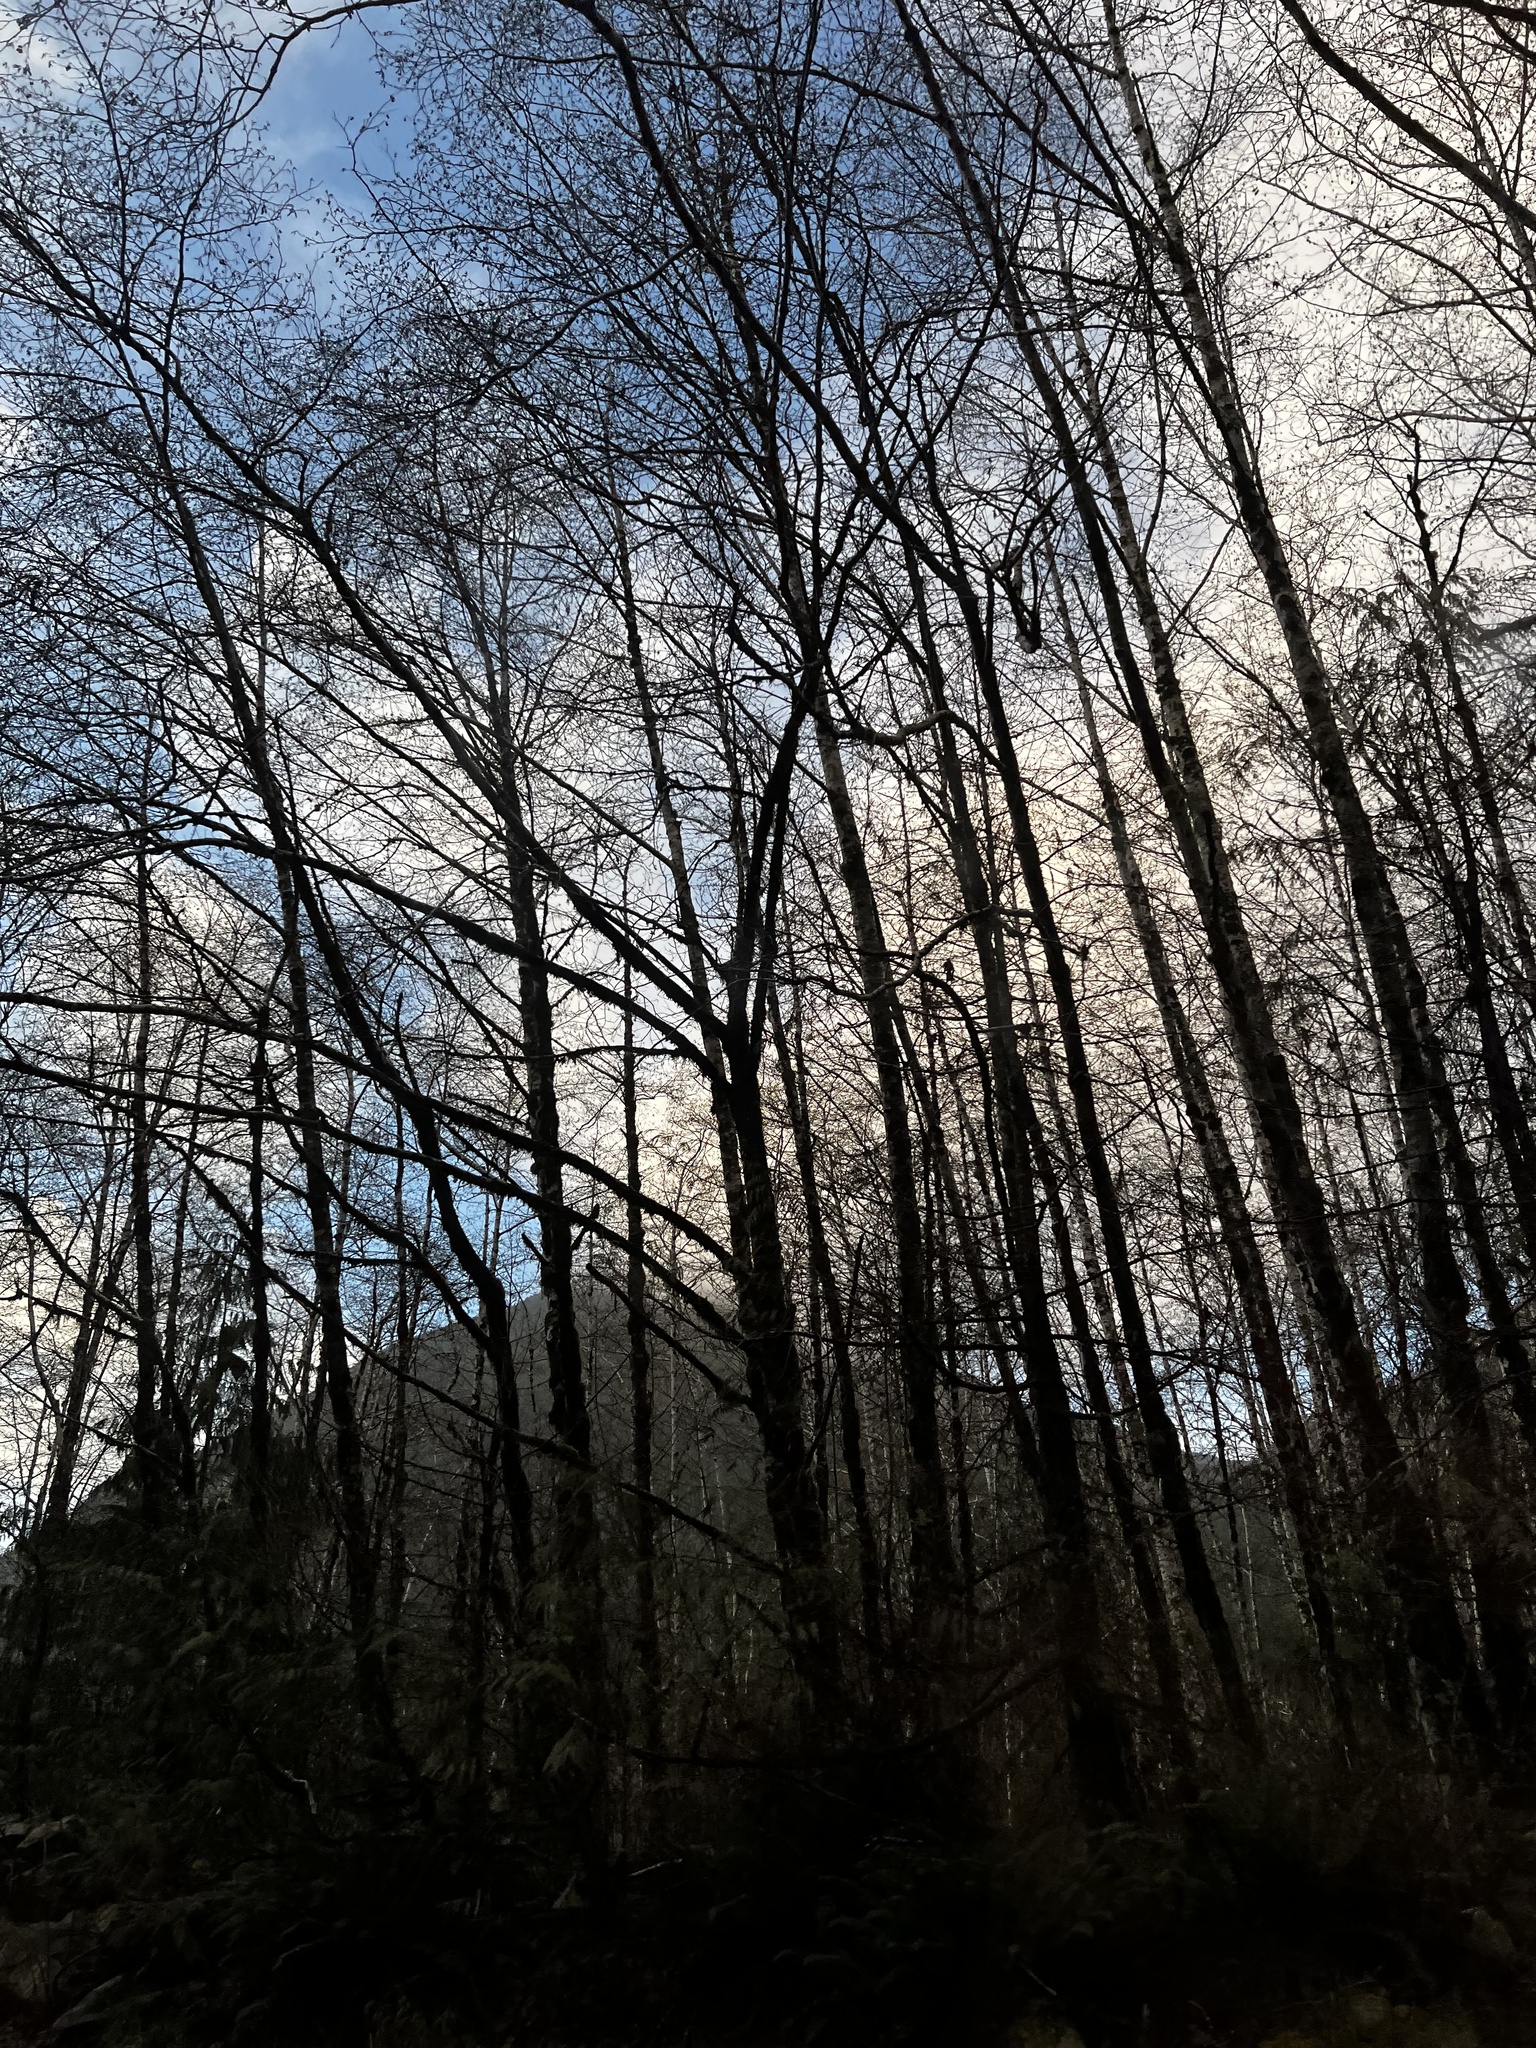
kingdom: Plantae
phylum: Tracheophyta
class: Magnoliopsida
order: Fagales
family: Betulaceae
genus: Alnus
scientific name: Alnus rubra
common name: Red alder
